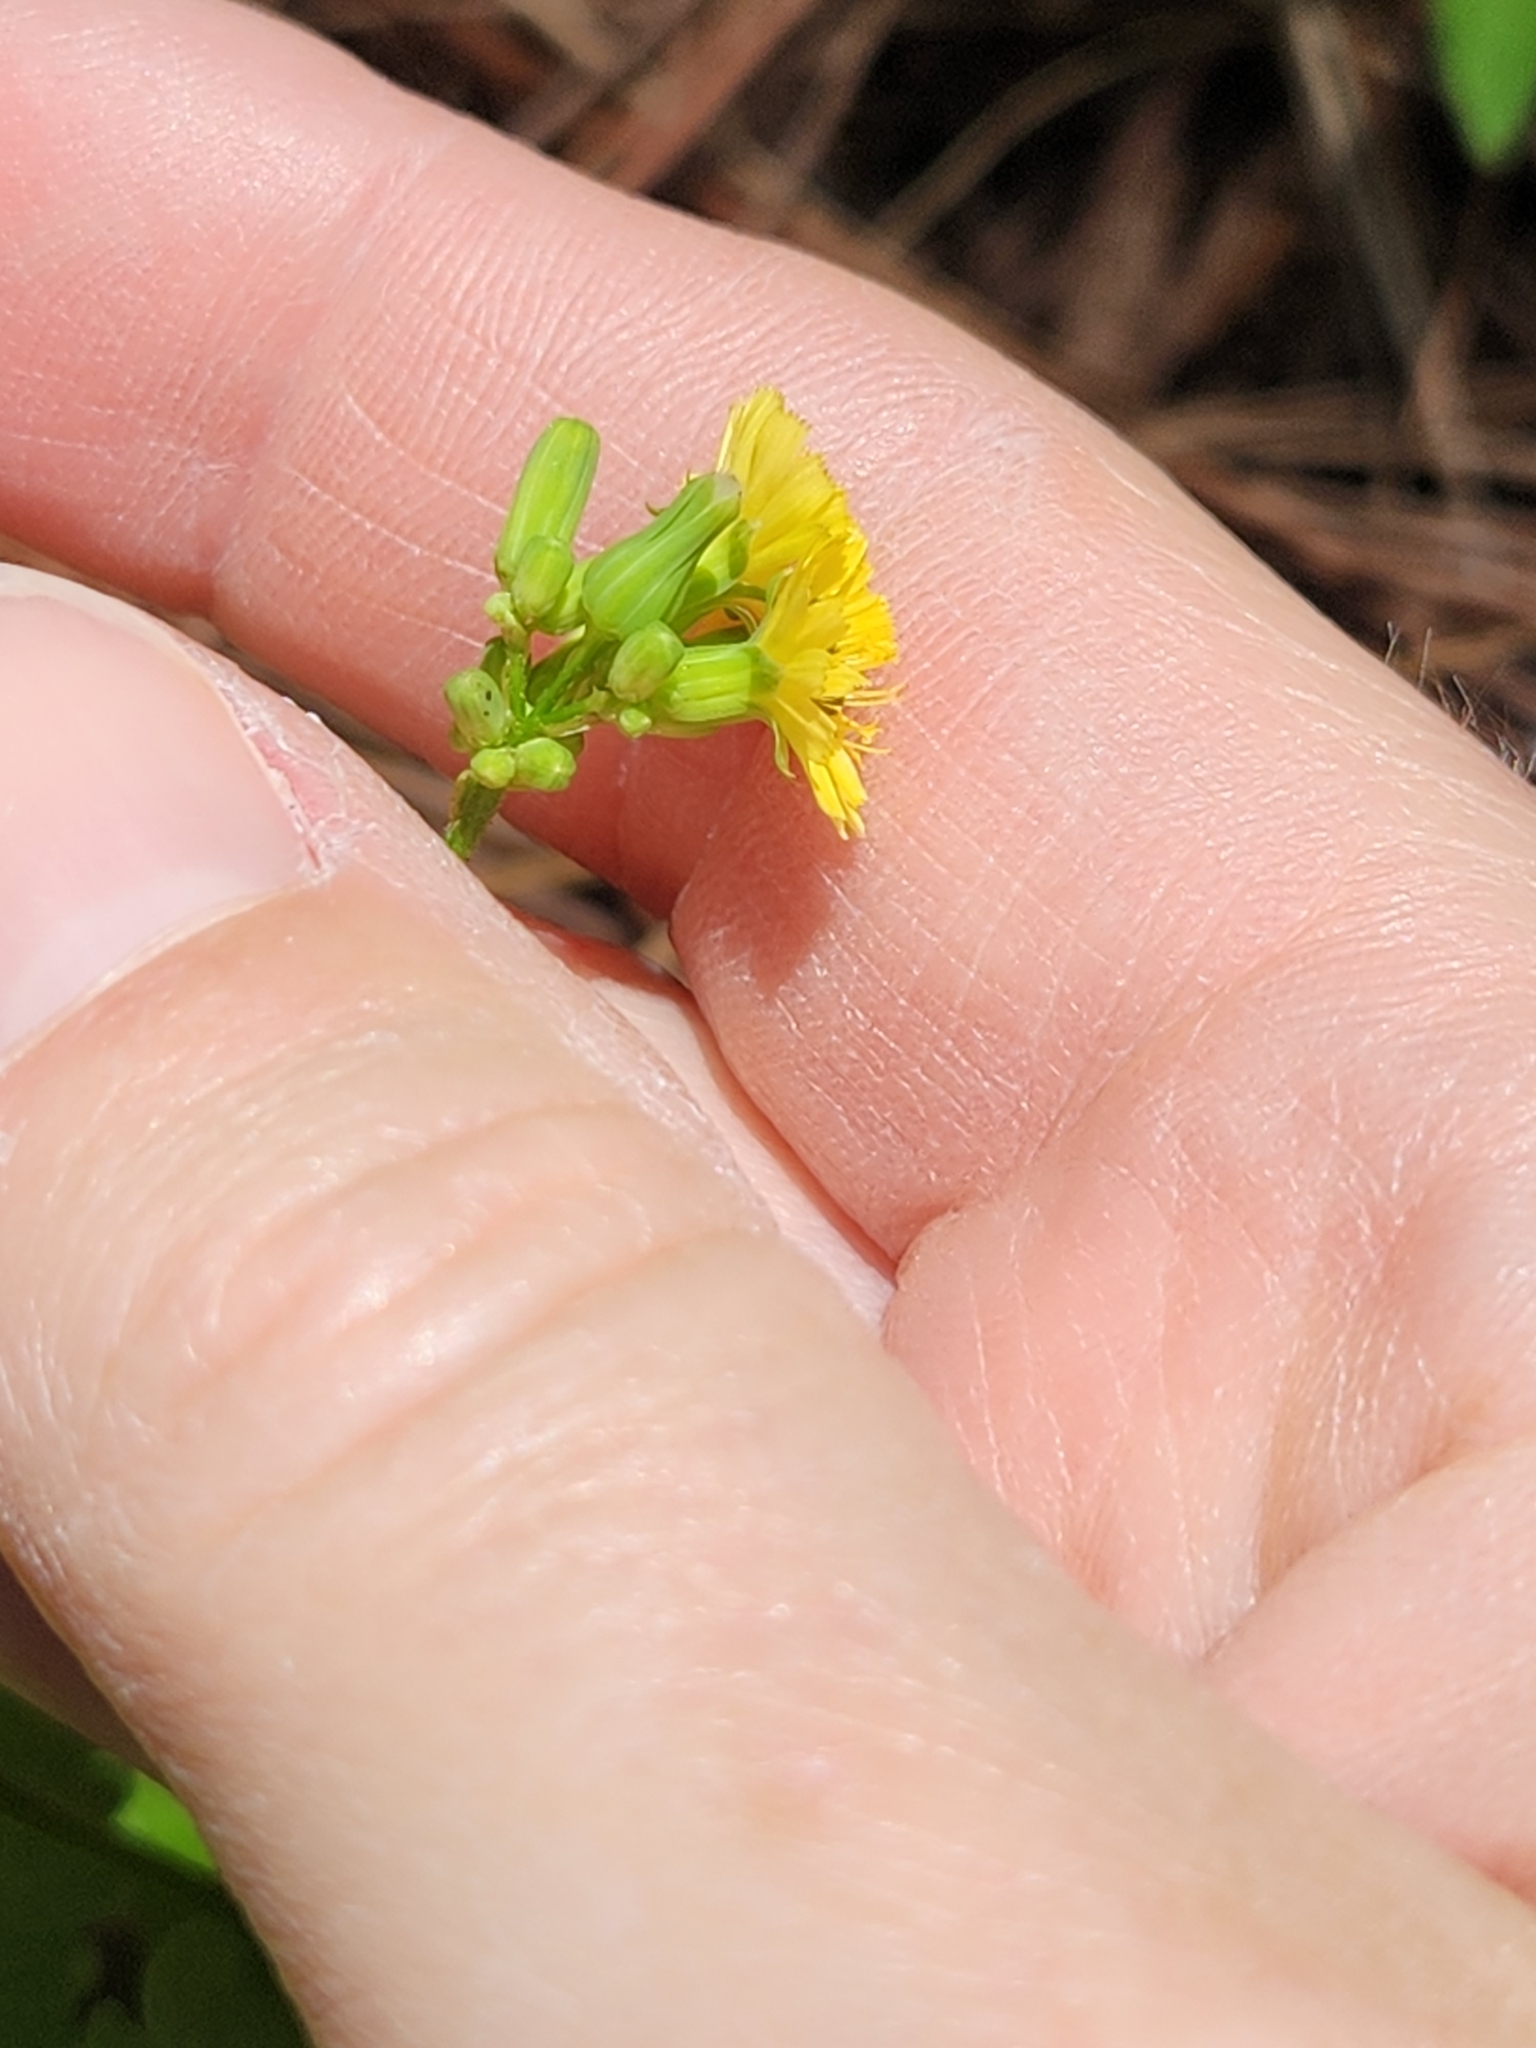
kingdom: Plantae
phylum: Tracheophyta
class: Magnoliopsida
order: Asterales
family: Asteraceae
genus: Youngia
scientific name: Youngia japonica
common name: Oriental false hawksbeard
